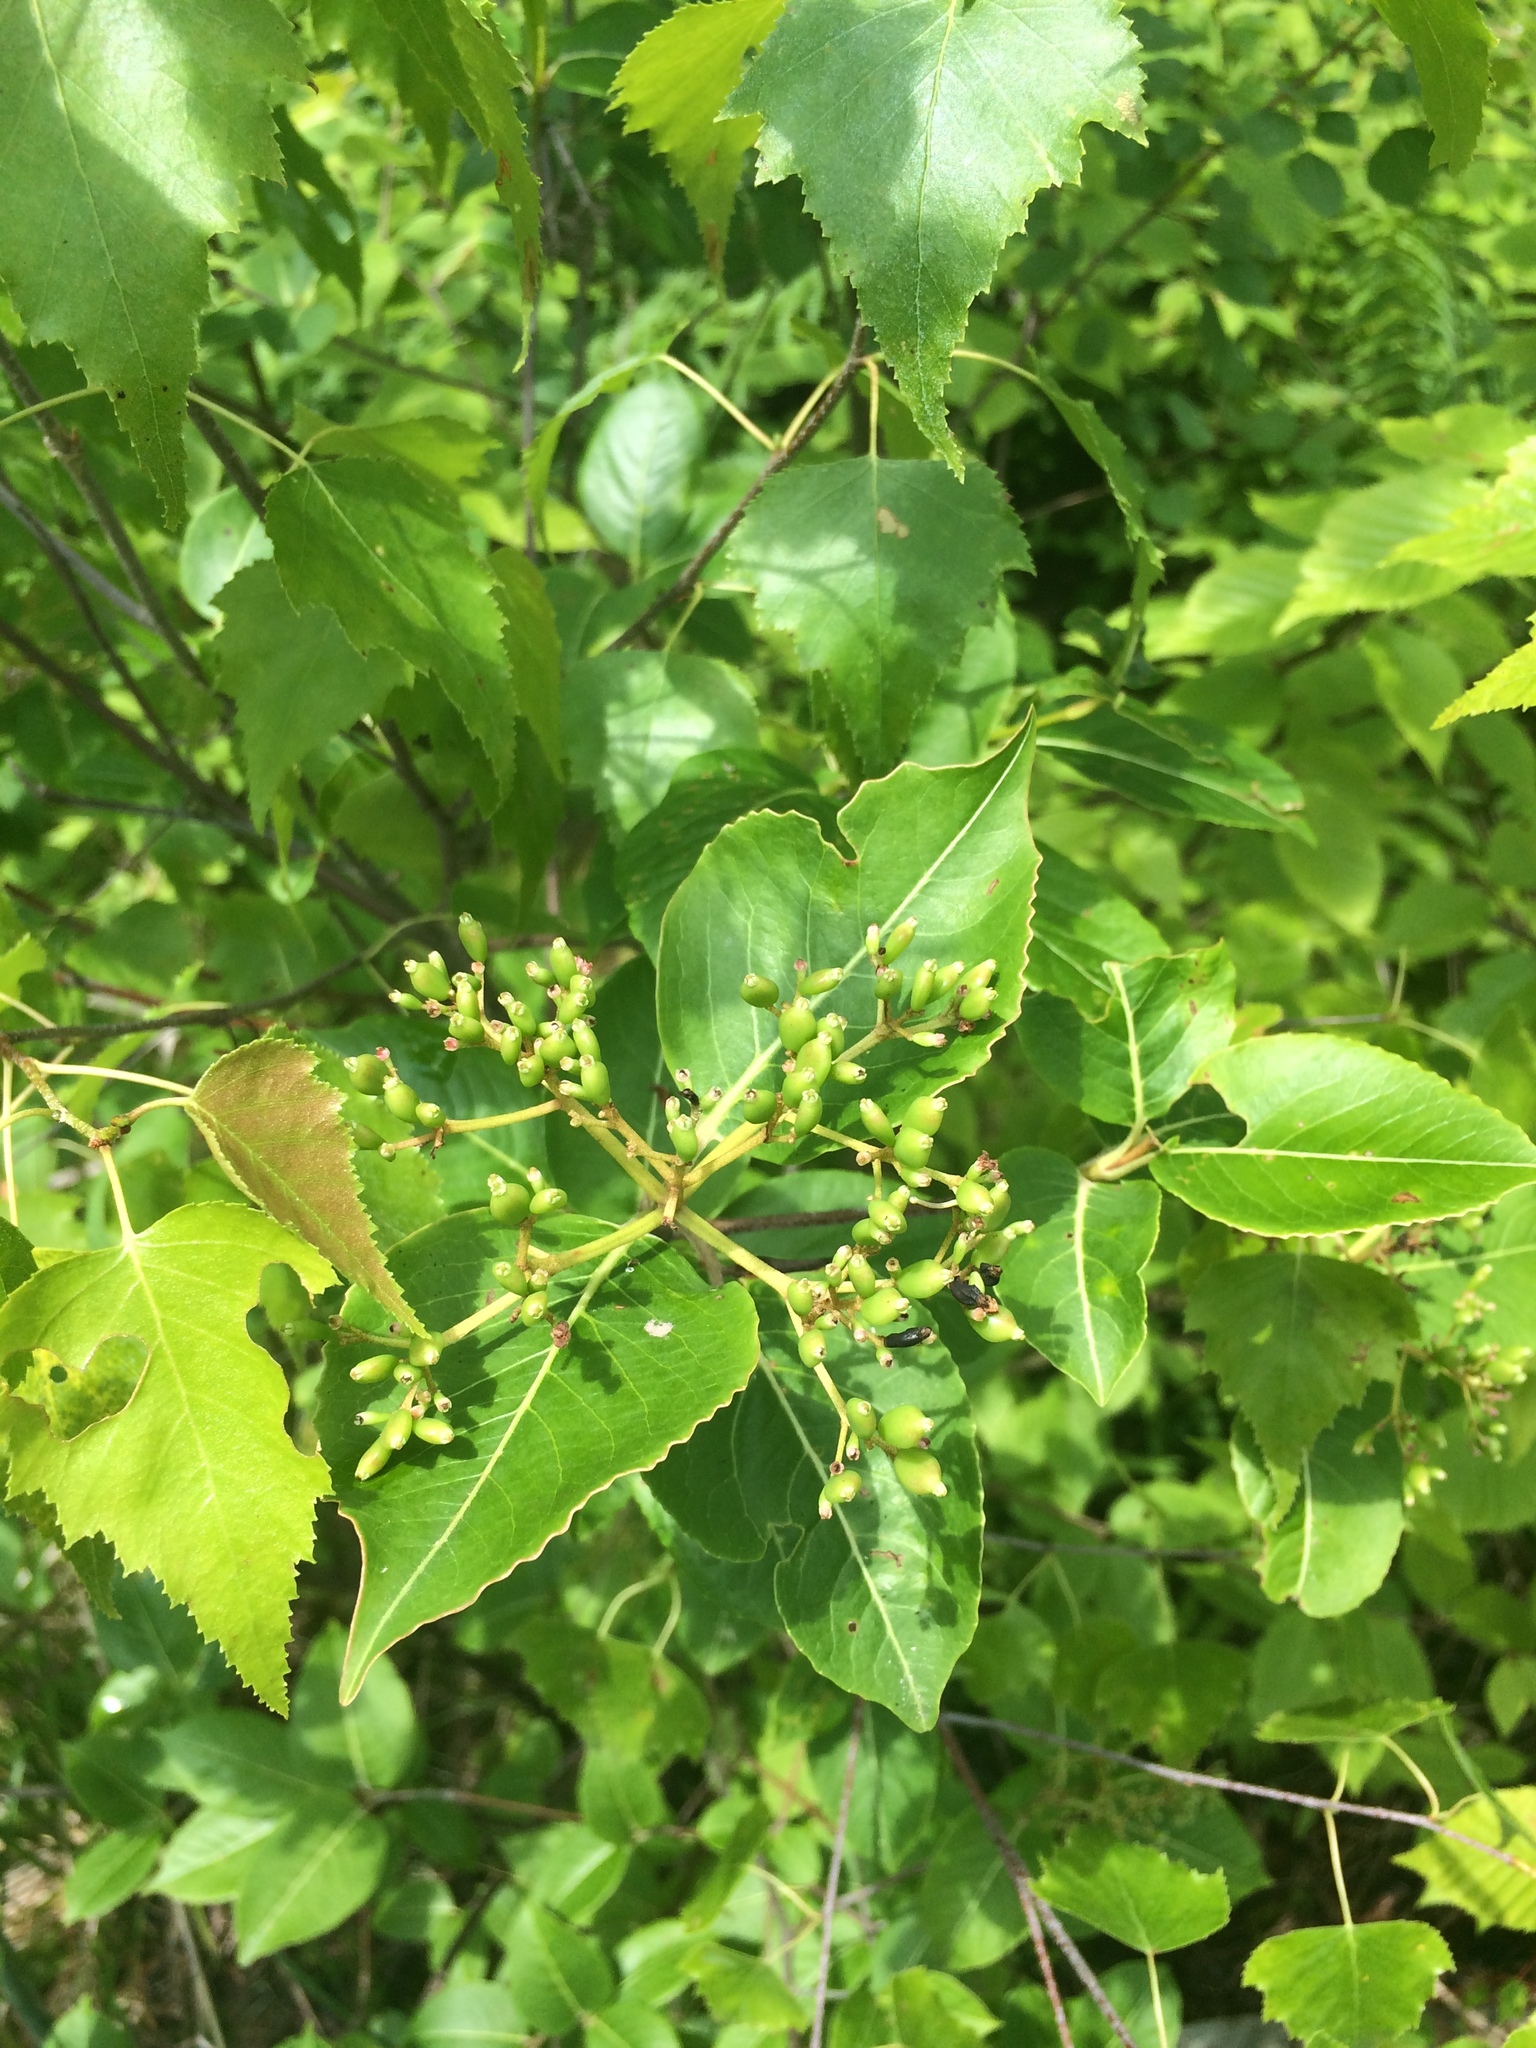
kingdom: Plantae
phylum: Tracheophyta
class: Magnoliopsida
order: Dipsacales
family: Viburnaceae
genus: Viburnum
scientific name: Viburnum cassinoides
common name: Swamp haw
